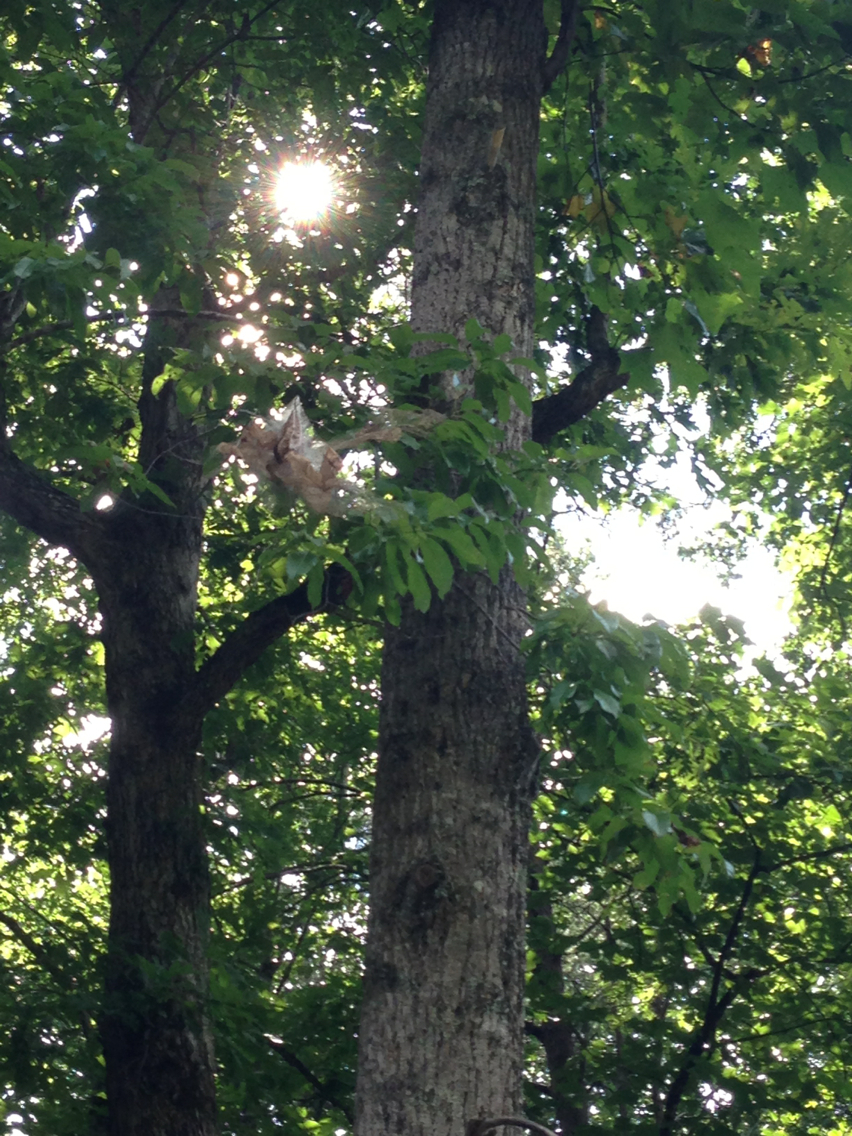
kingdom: Animalia
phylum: Arthropoda
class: Insecta
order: Lepidoptera
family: Erebidae
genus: Hyphantria
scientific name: Hyphantria cunea
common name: American white moth
